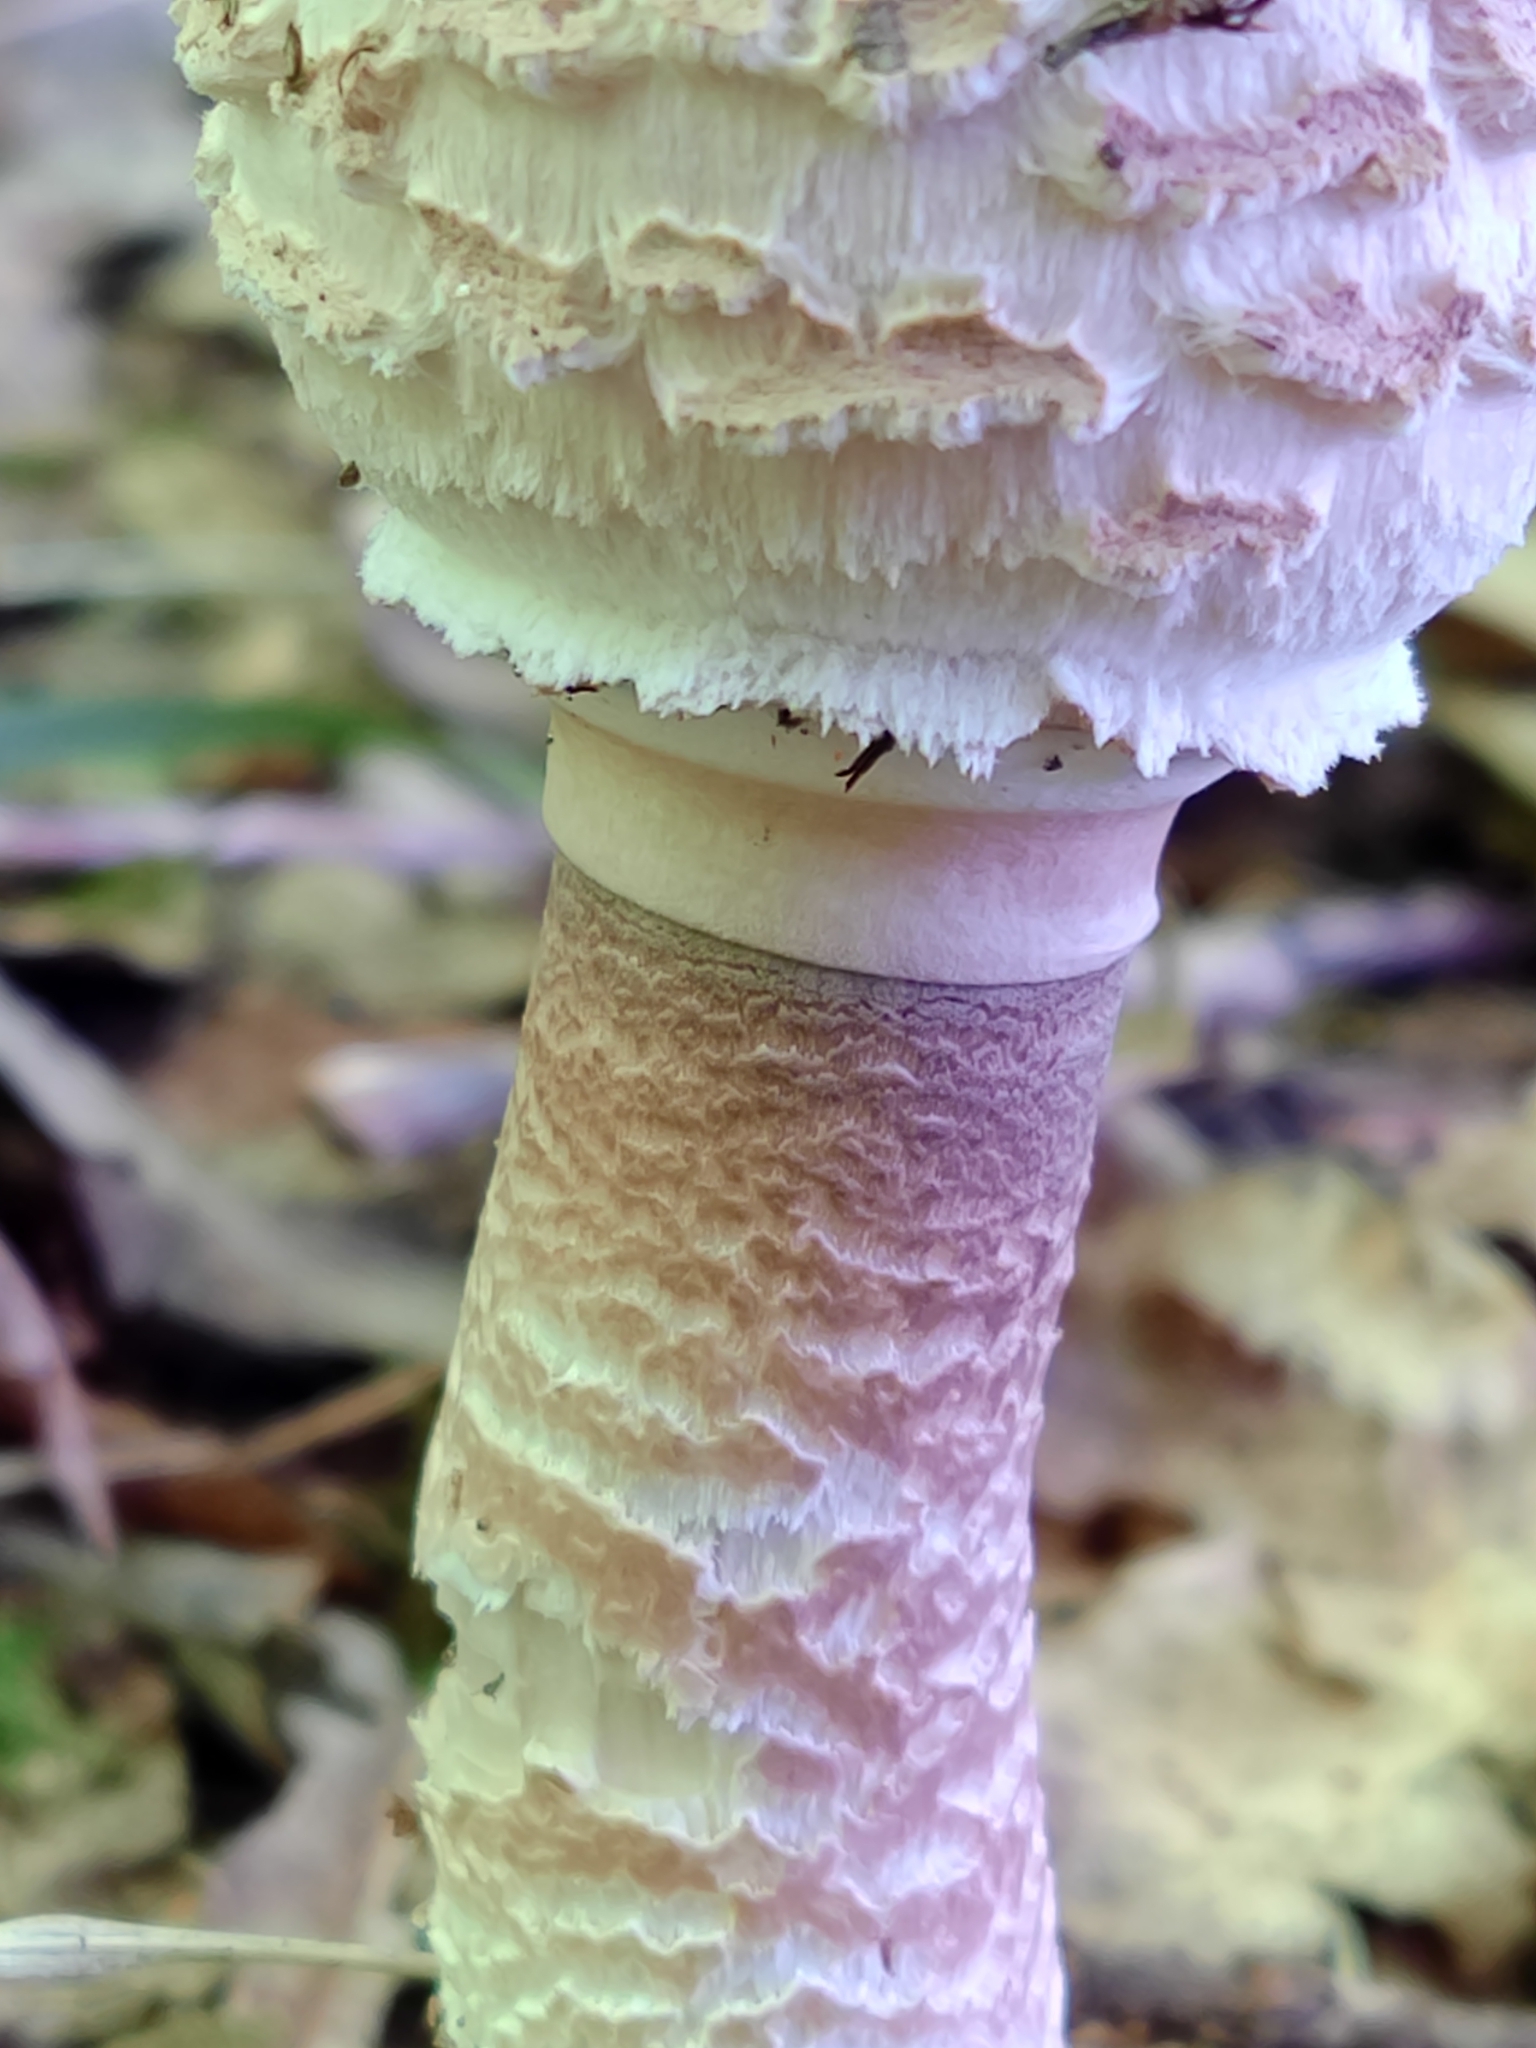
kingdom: Fungi
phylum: Basidiomycota
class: Agaricomycetes
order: Agaricales
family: Agaricaceae
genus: Macrolepiota
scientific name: Macrolepiota procera
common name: Parasol
